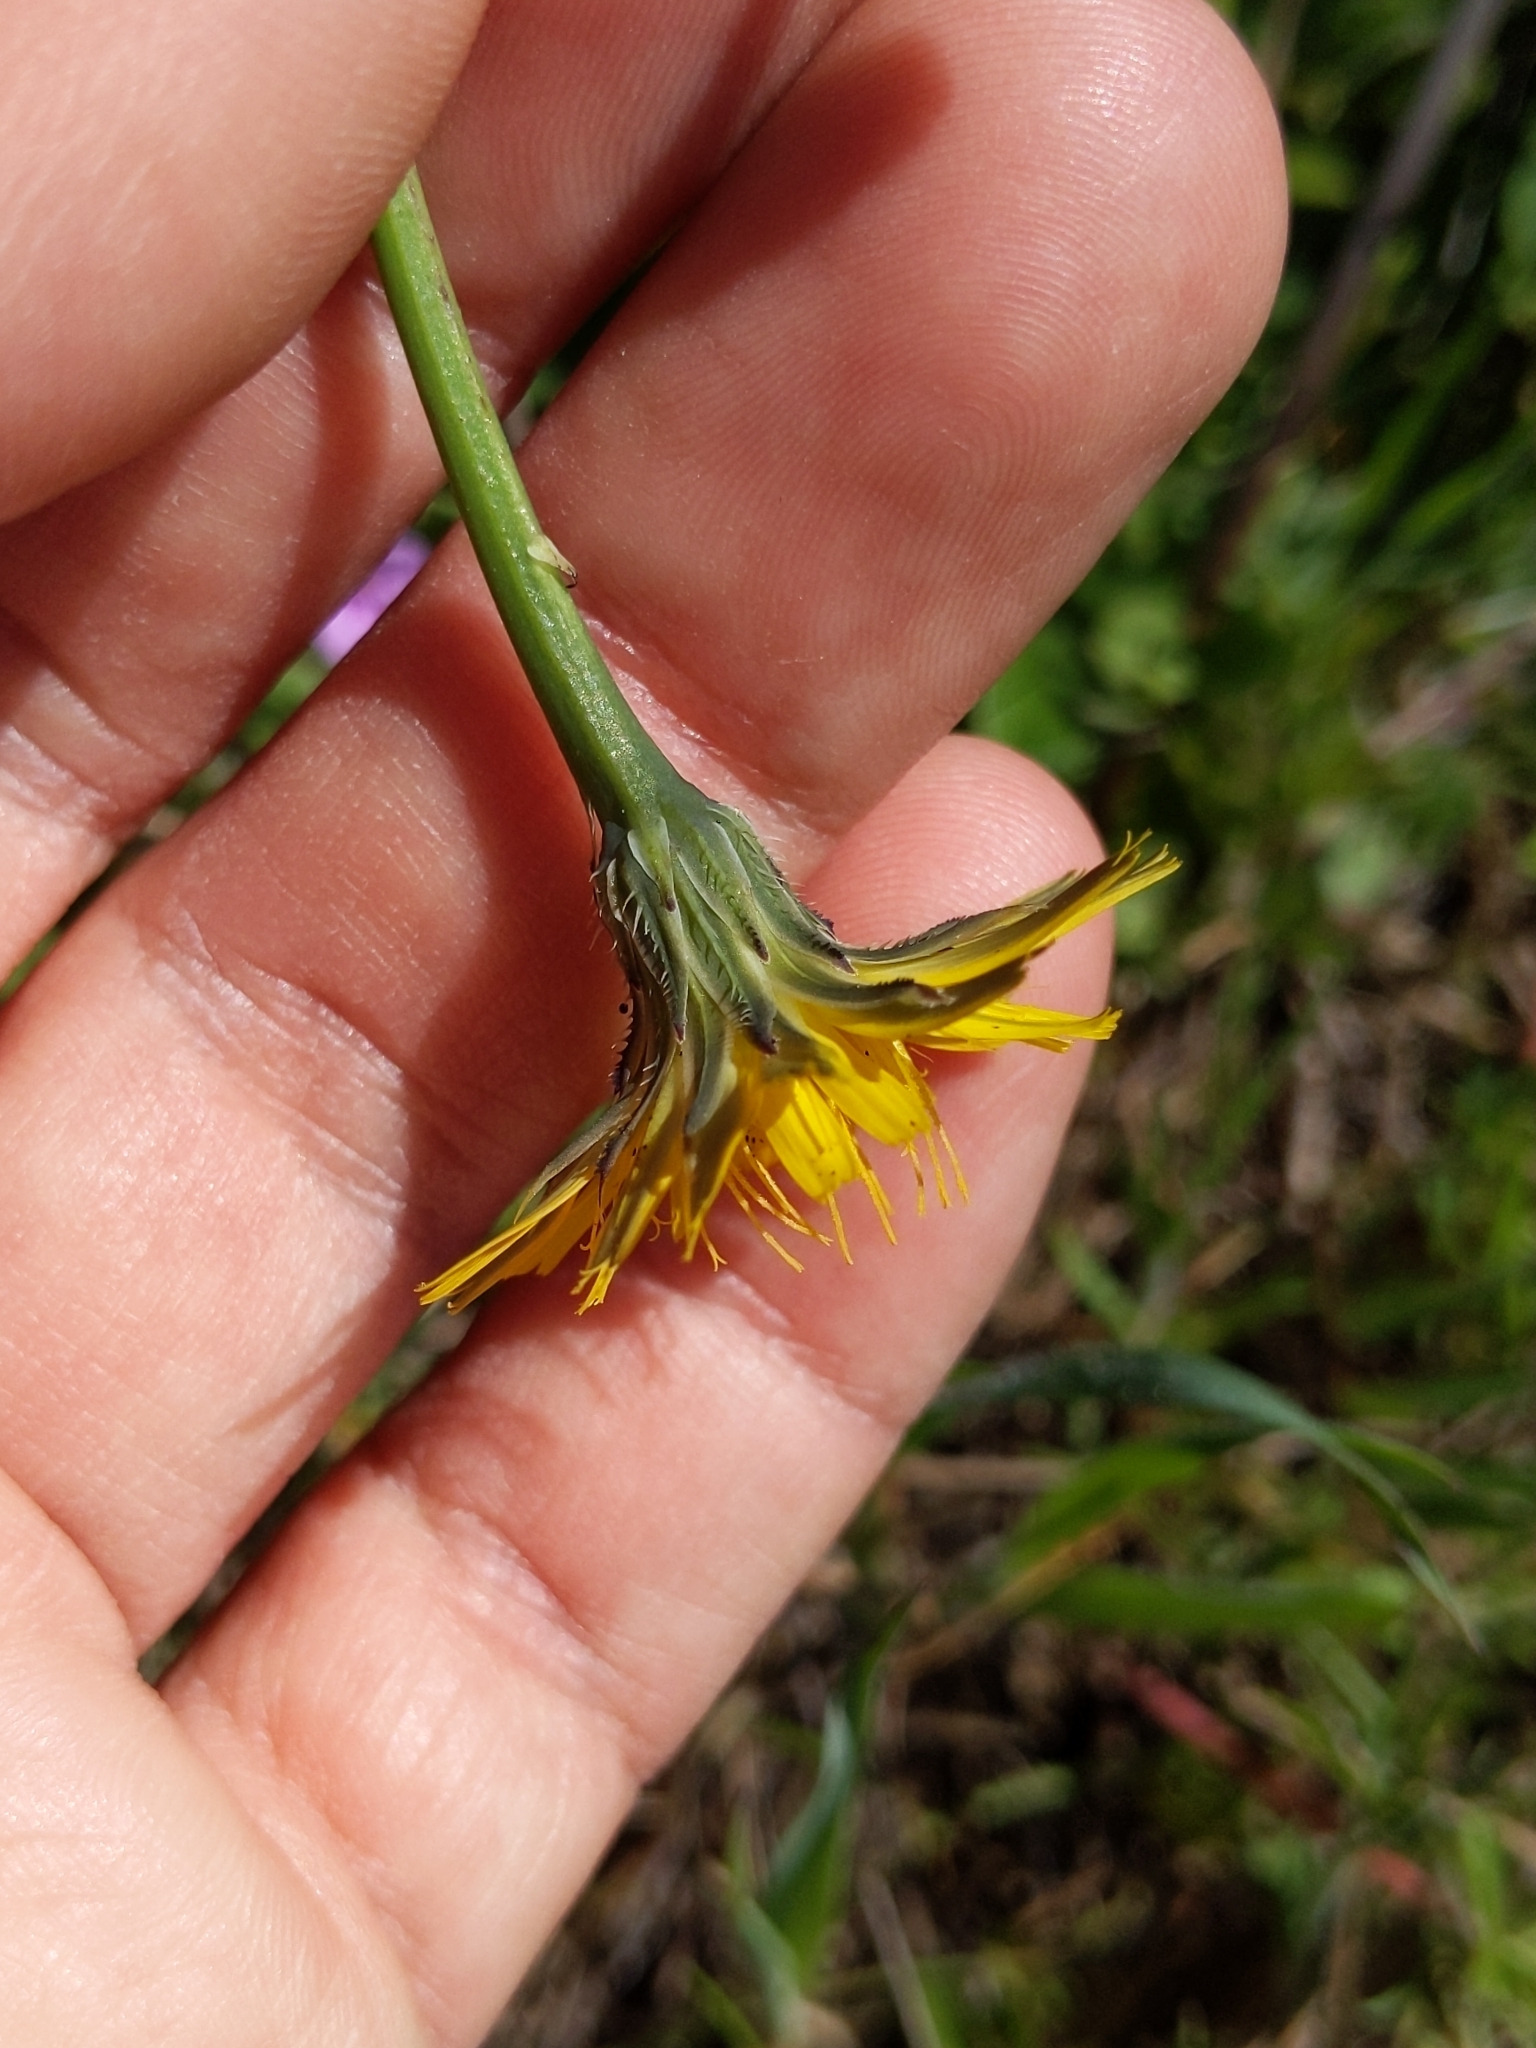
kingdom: Plantae
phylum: Tracheophyta
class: Magnoliopsida
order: Asterales
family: Asteraceae
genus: Hypochaeris
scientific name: Hypochaeris radicata
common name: Flatweed
